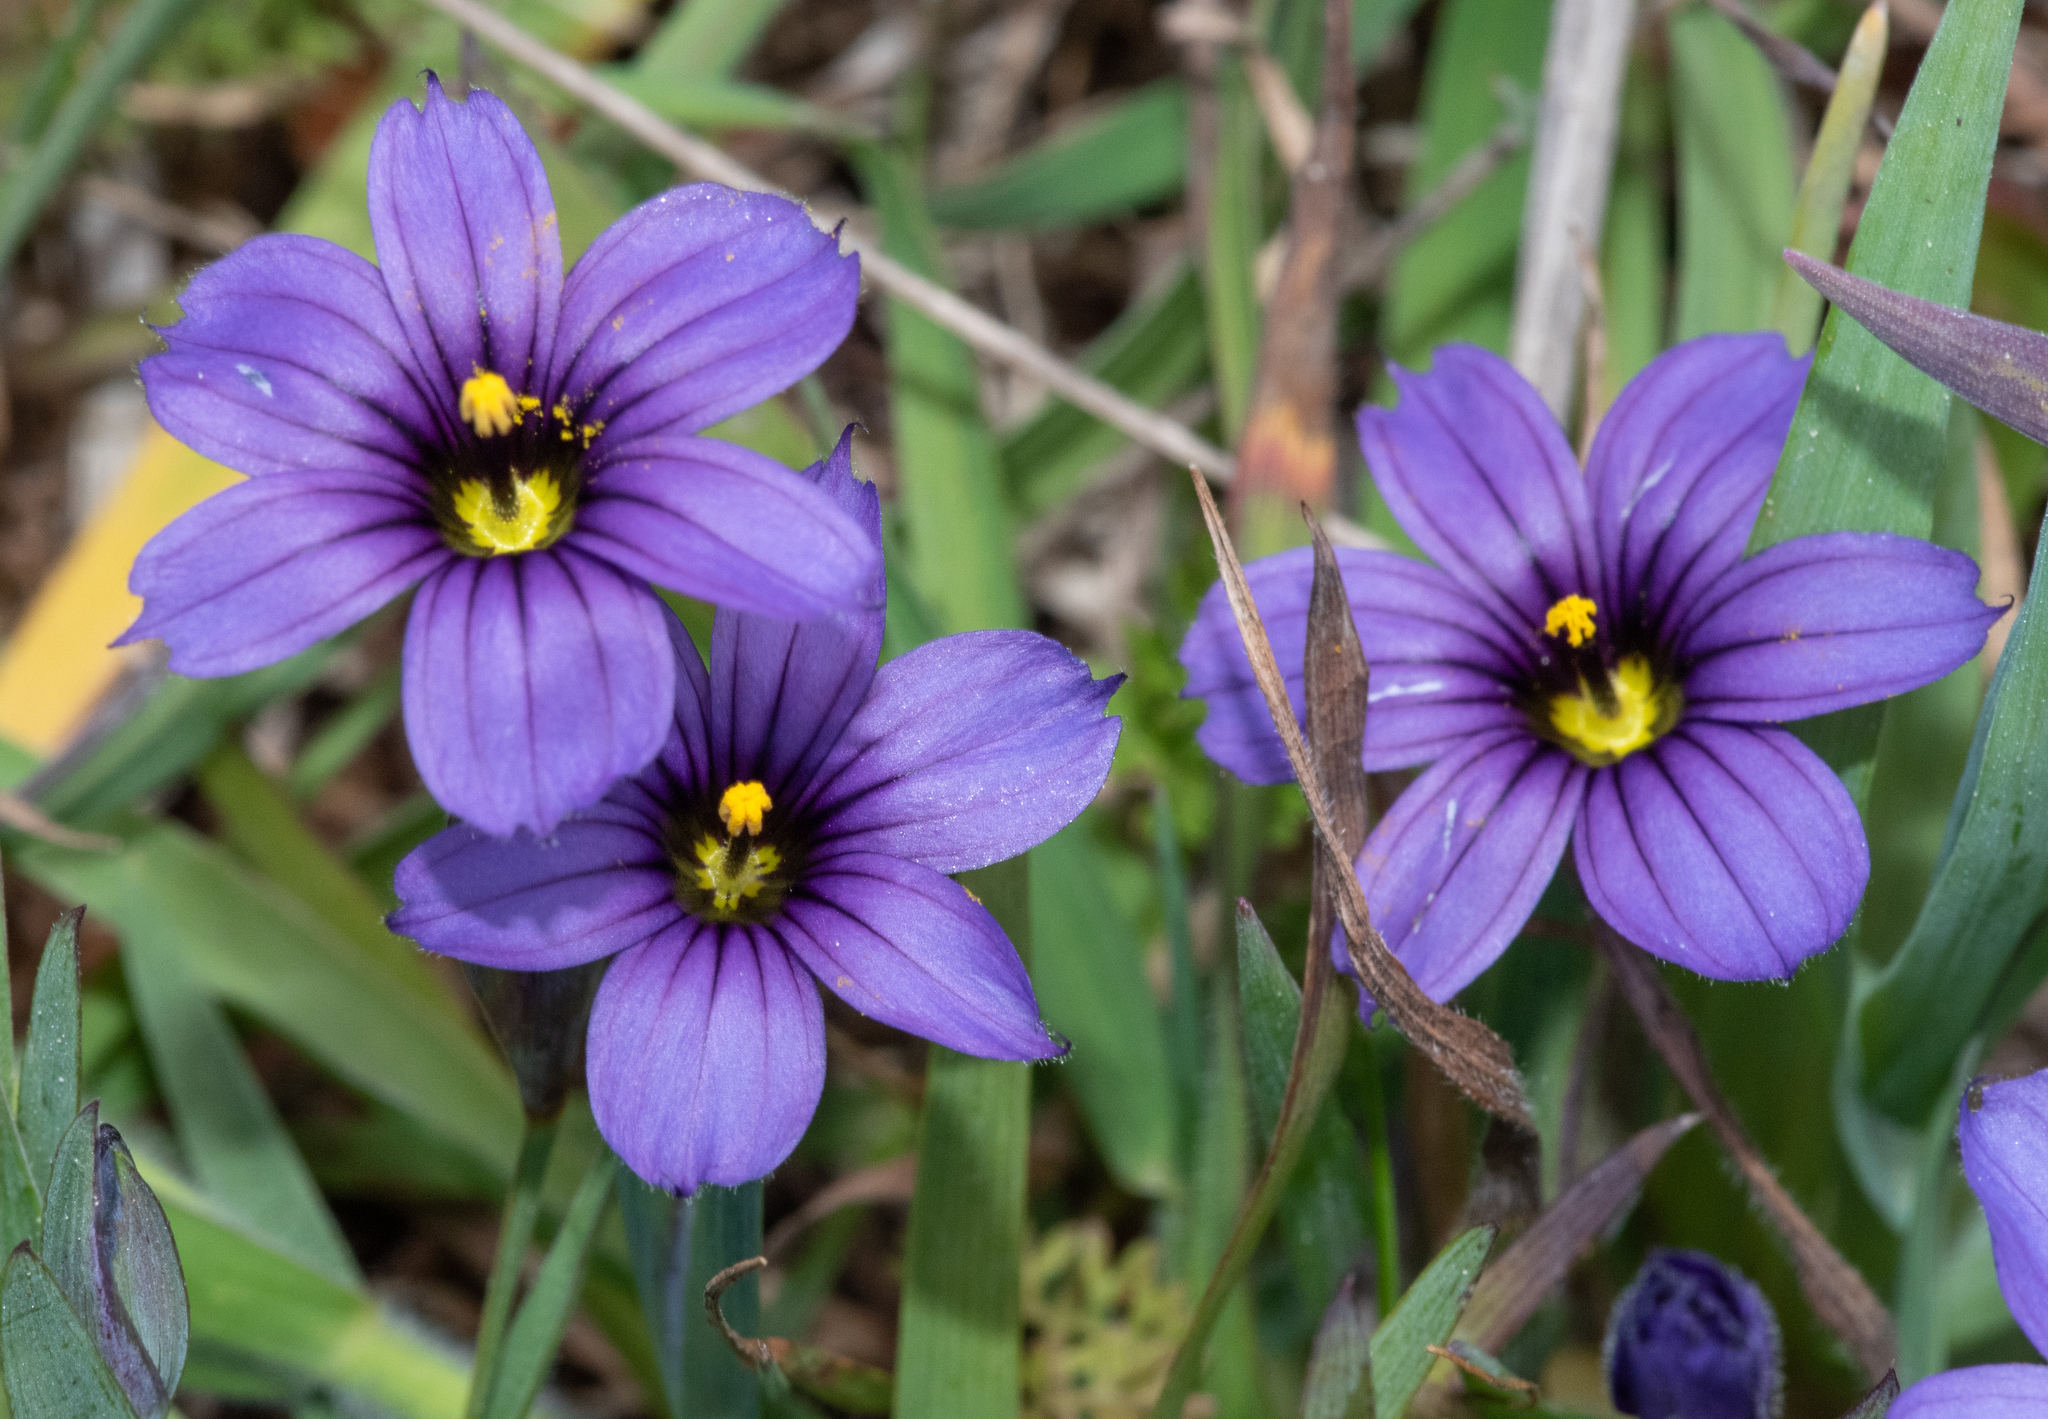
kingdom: Plantae
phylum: Tracheophyta
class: Liliopsida
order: Asparagales
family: Iridaceae
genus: Sisyrinchium
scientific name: Sisyrinchium bellum
